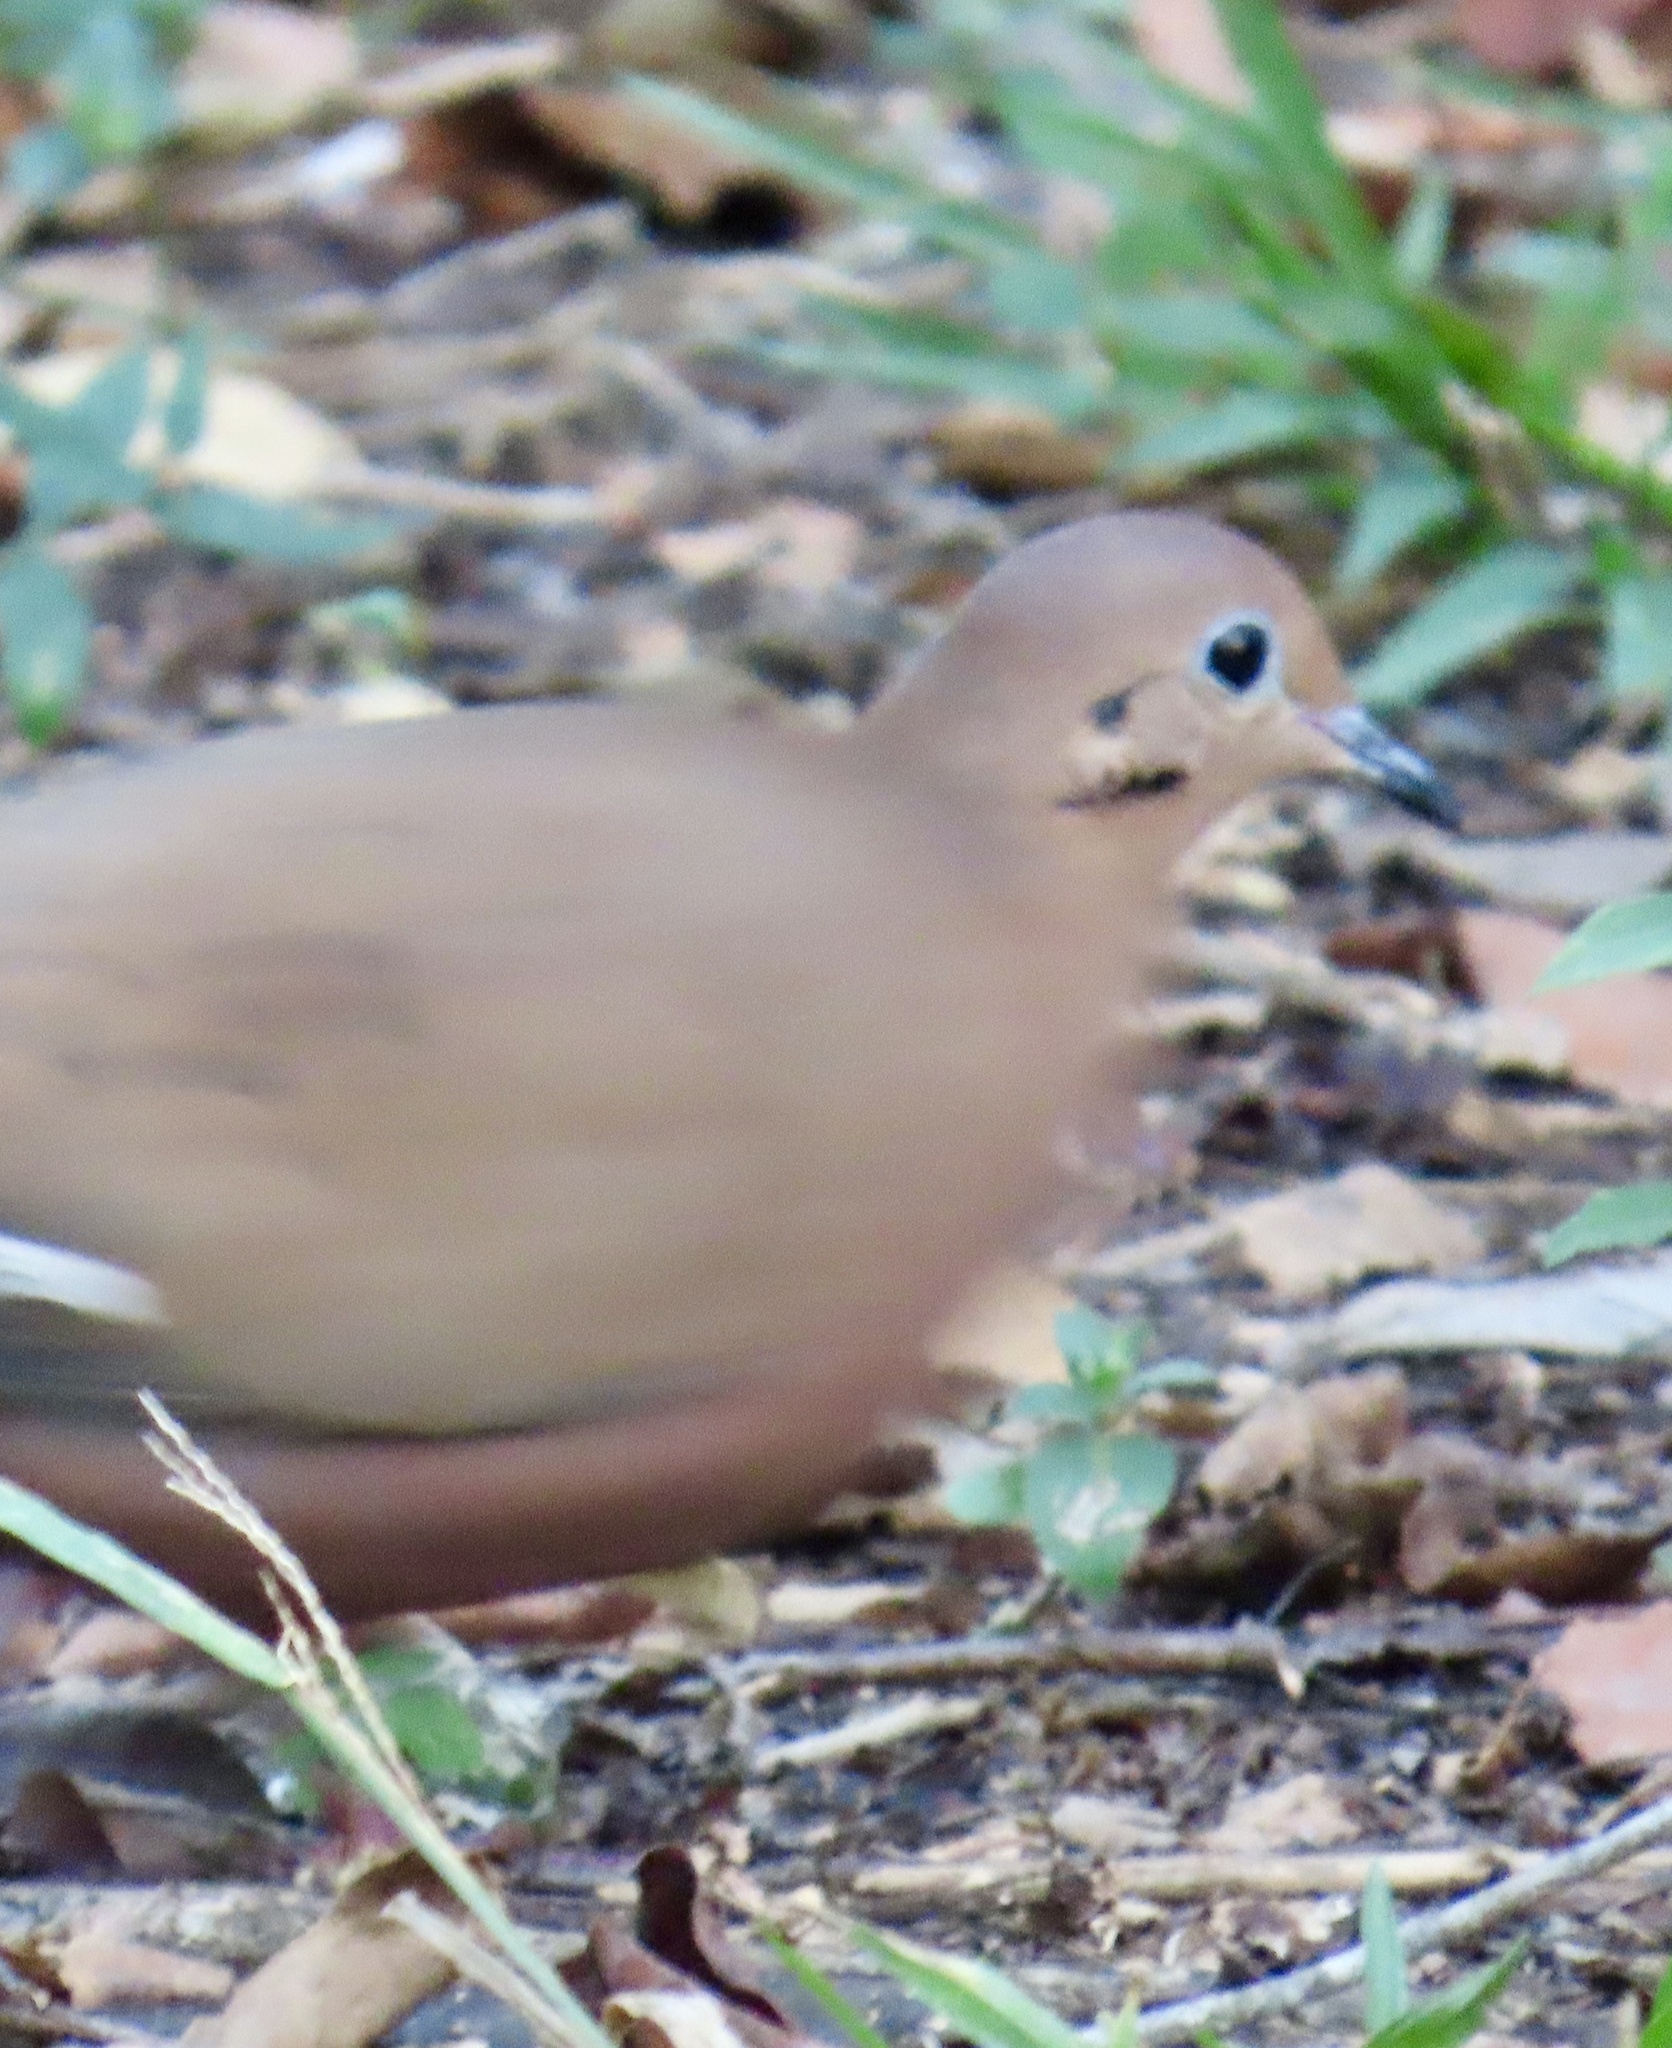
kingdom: Animalia
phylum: Chordata
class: Aves
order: Columbiformes
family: Columbidae
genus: Zenaida
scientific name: Zenaida aurita
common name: Zenaida dove
